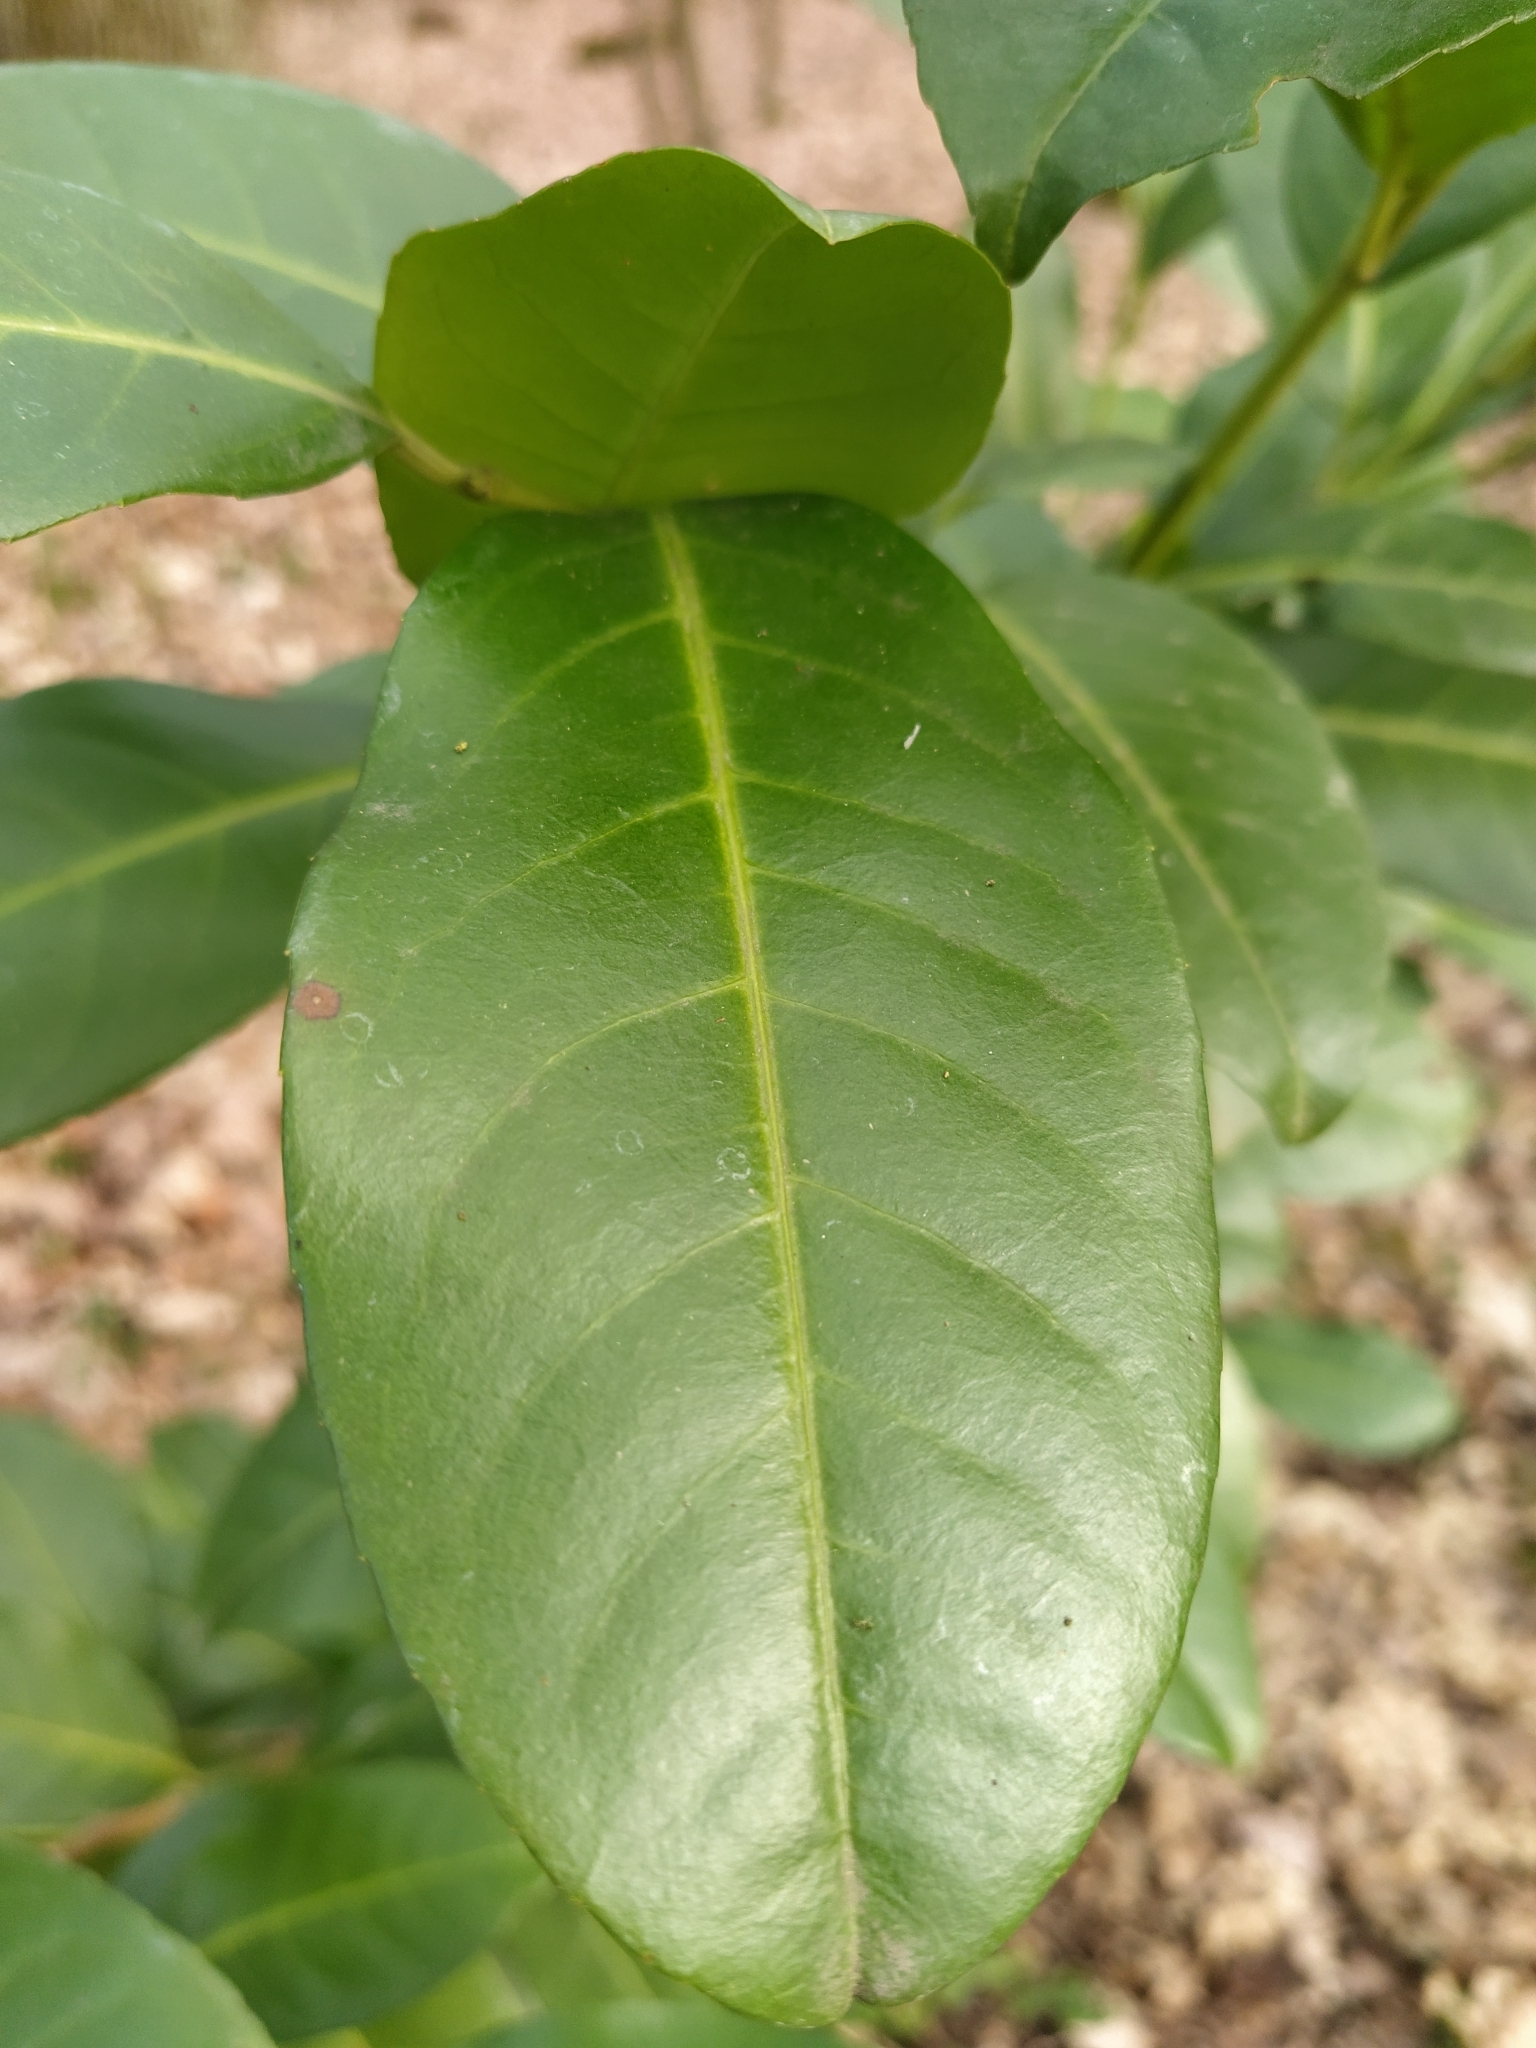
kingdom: Plantae
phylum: Tracheophyta
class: Magnoliopsida
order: Rosales
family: Rosaceae
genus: Prunus
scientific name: Prunus laurocerasus
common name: Cherry laurel
